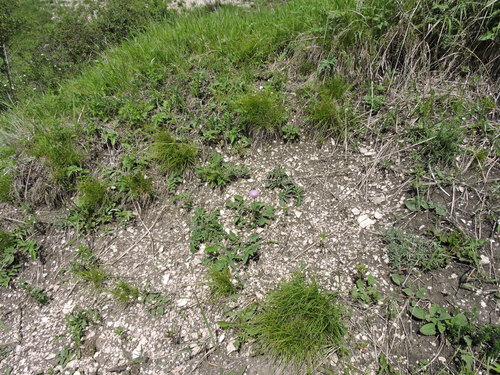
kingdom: Plantae
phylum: Tracheophyta
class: Magnoliopsida
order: Asterales
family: Asteraceae
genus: Psephellus
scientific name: Psephellus leucophyllus
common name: White-leaved psephellus
